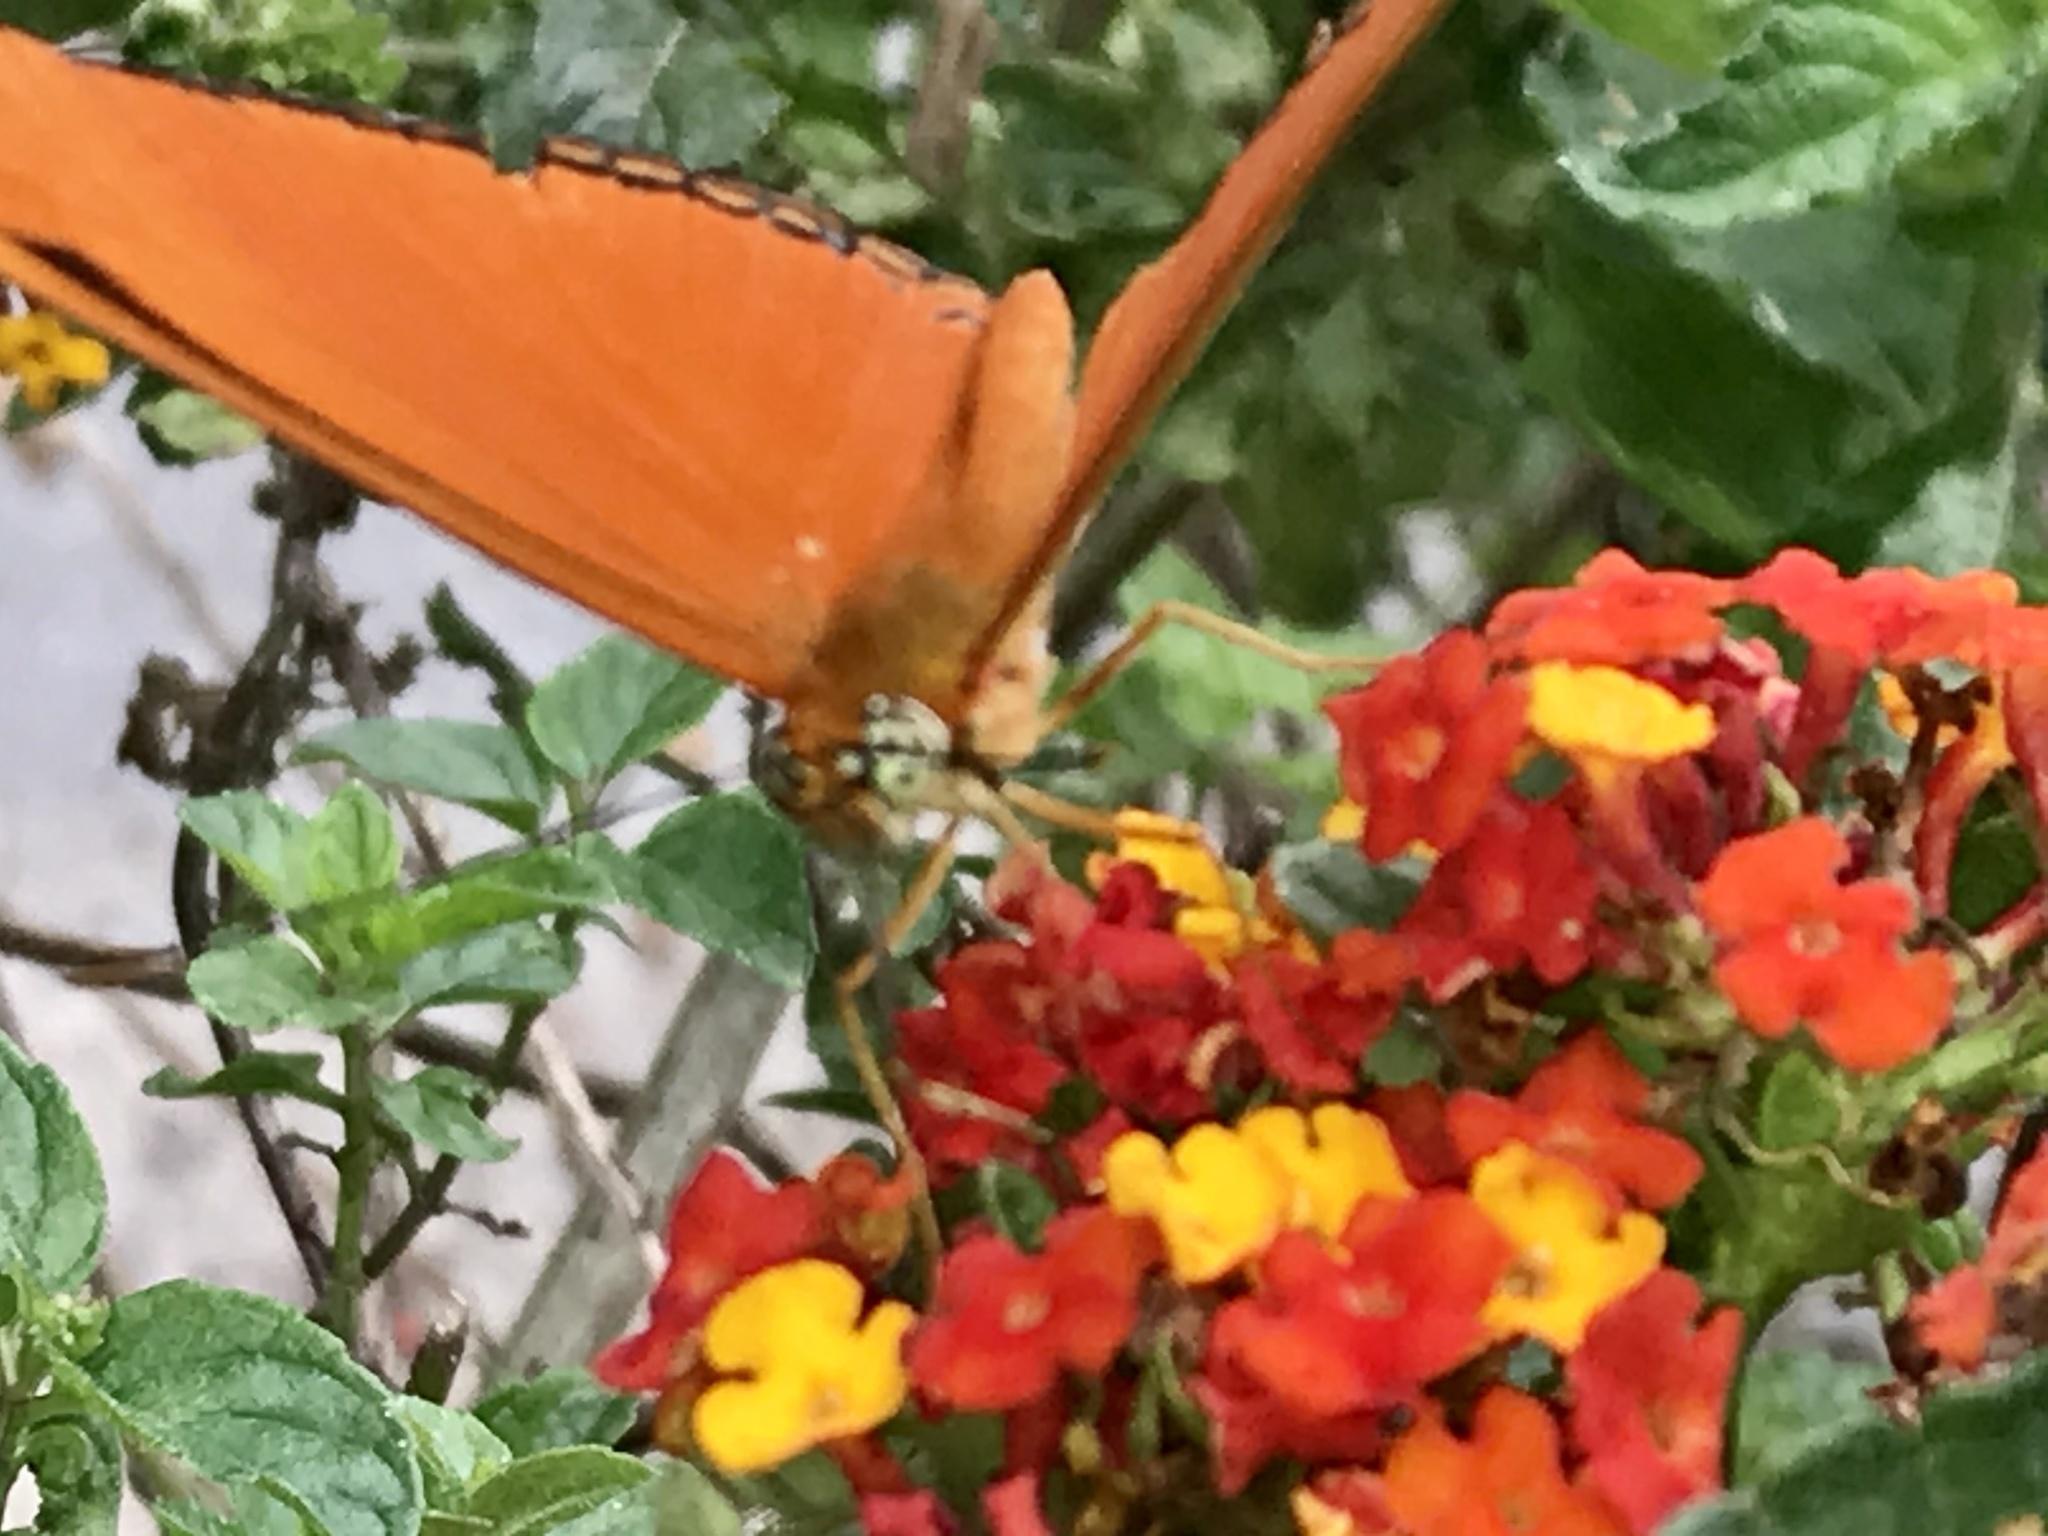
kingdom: Animalia
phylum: Arthropoda
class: Insecta
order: Lepidoptera
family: Nymphalidae
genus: Dryas
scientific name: Dryas iulia
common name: Flambeau
